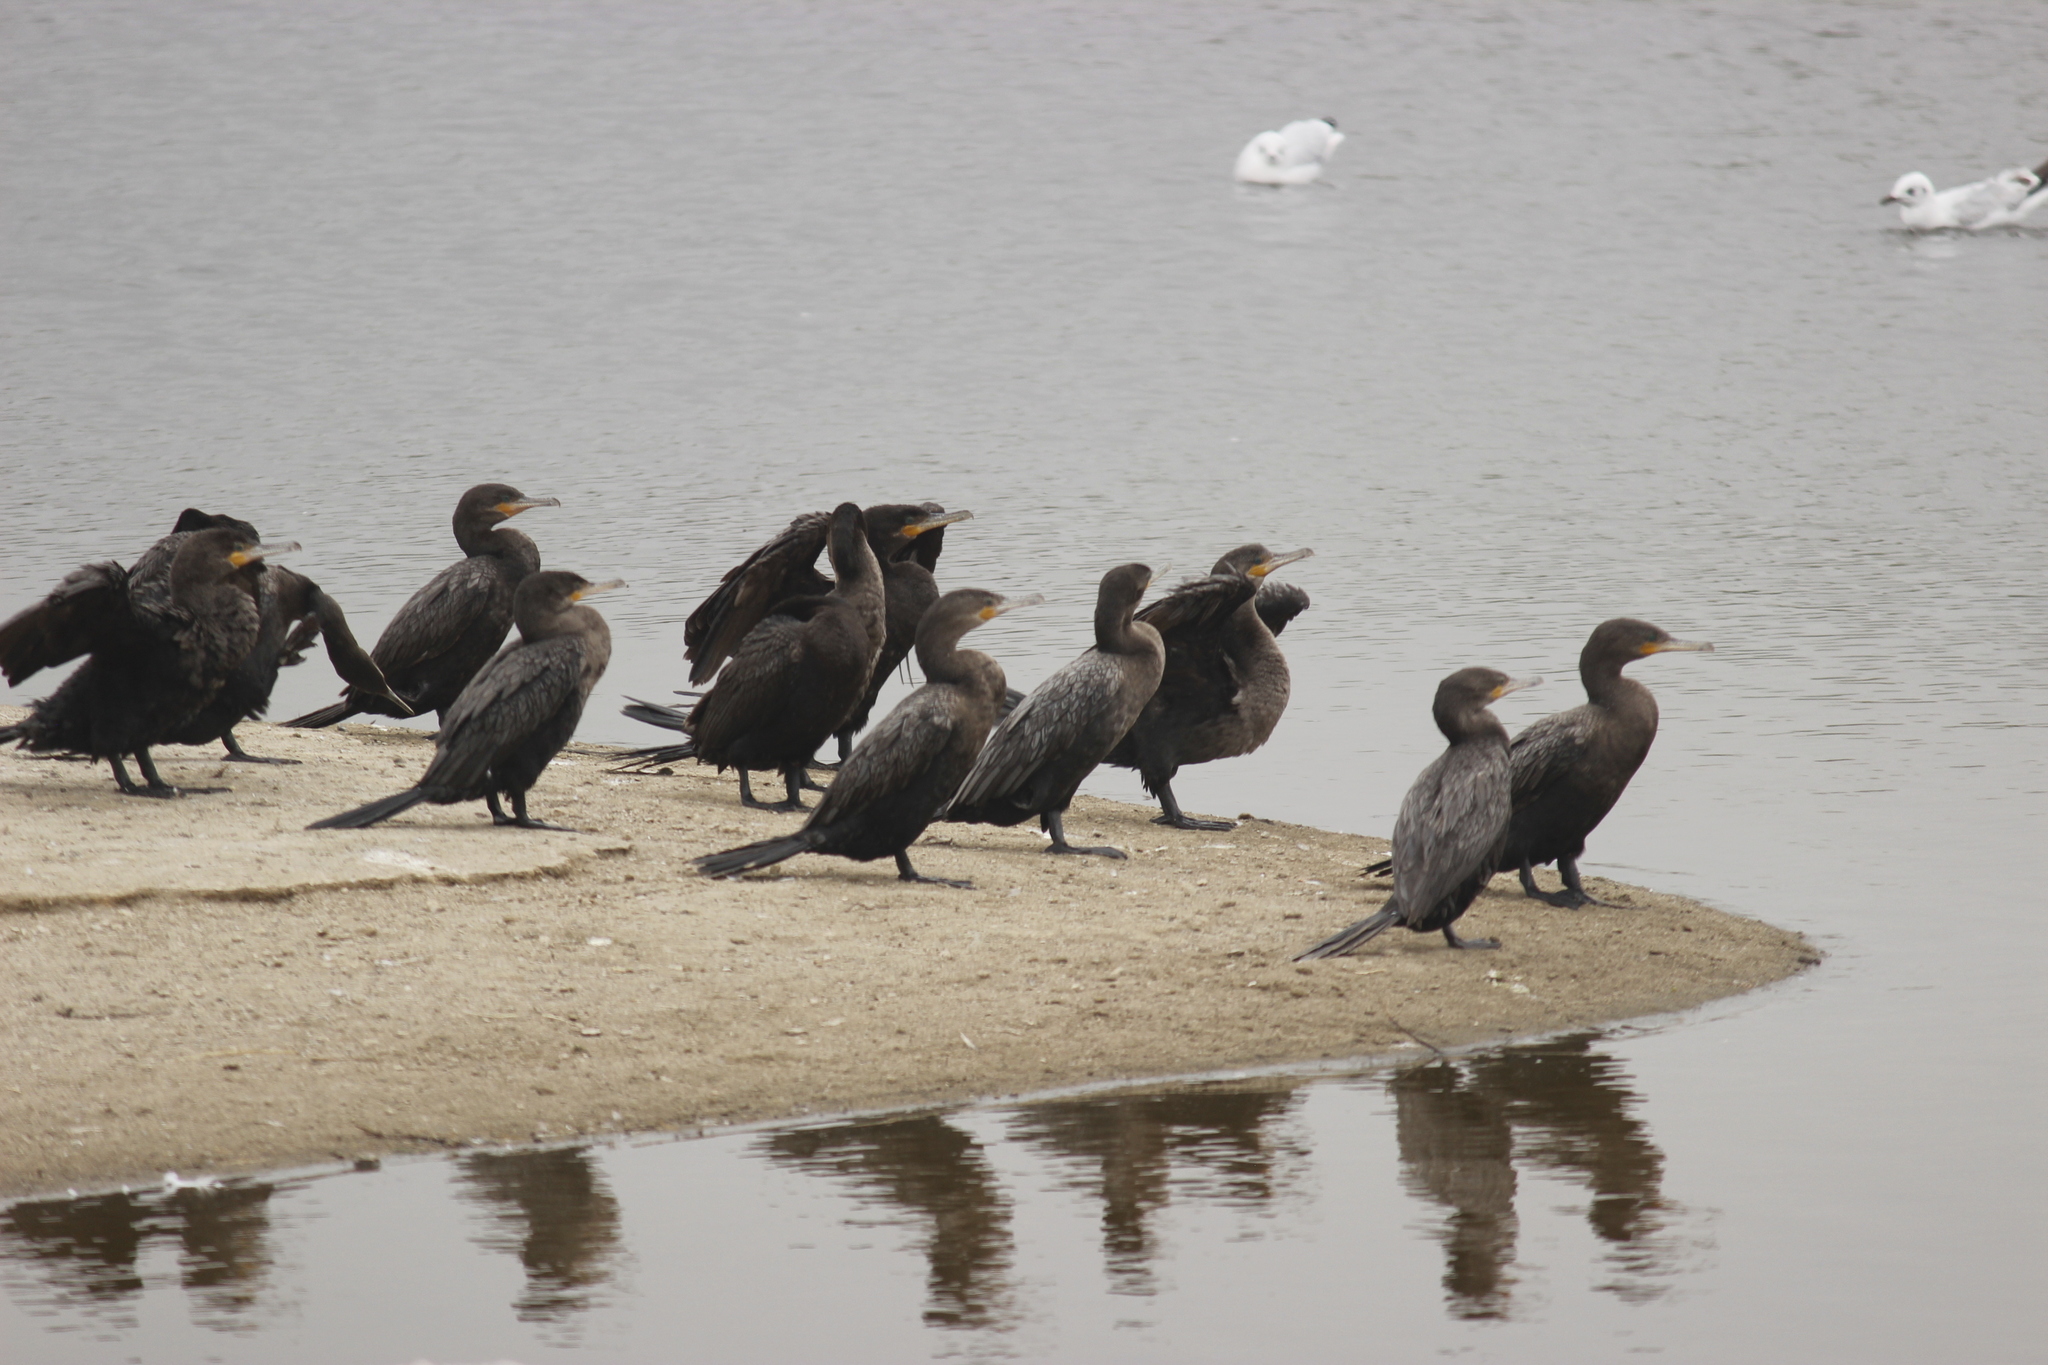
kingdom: Animalia
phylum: Chordata
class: Aves
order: Suliformes
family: Phalacrocoracidae
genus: Phalacrocorax
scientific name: Phalacrocorax brasilianus
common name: Neotropic cormorant
